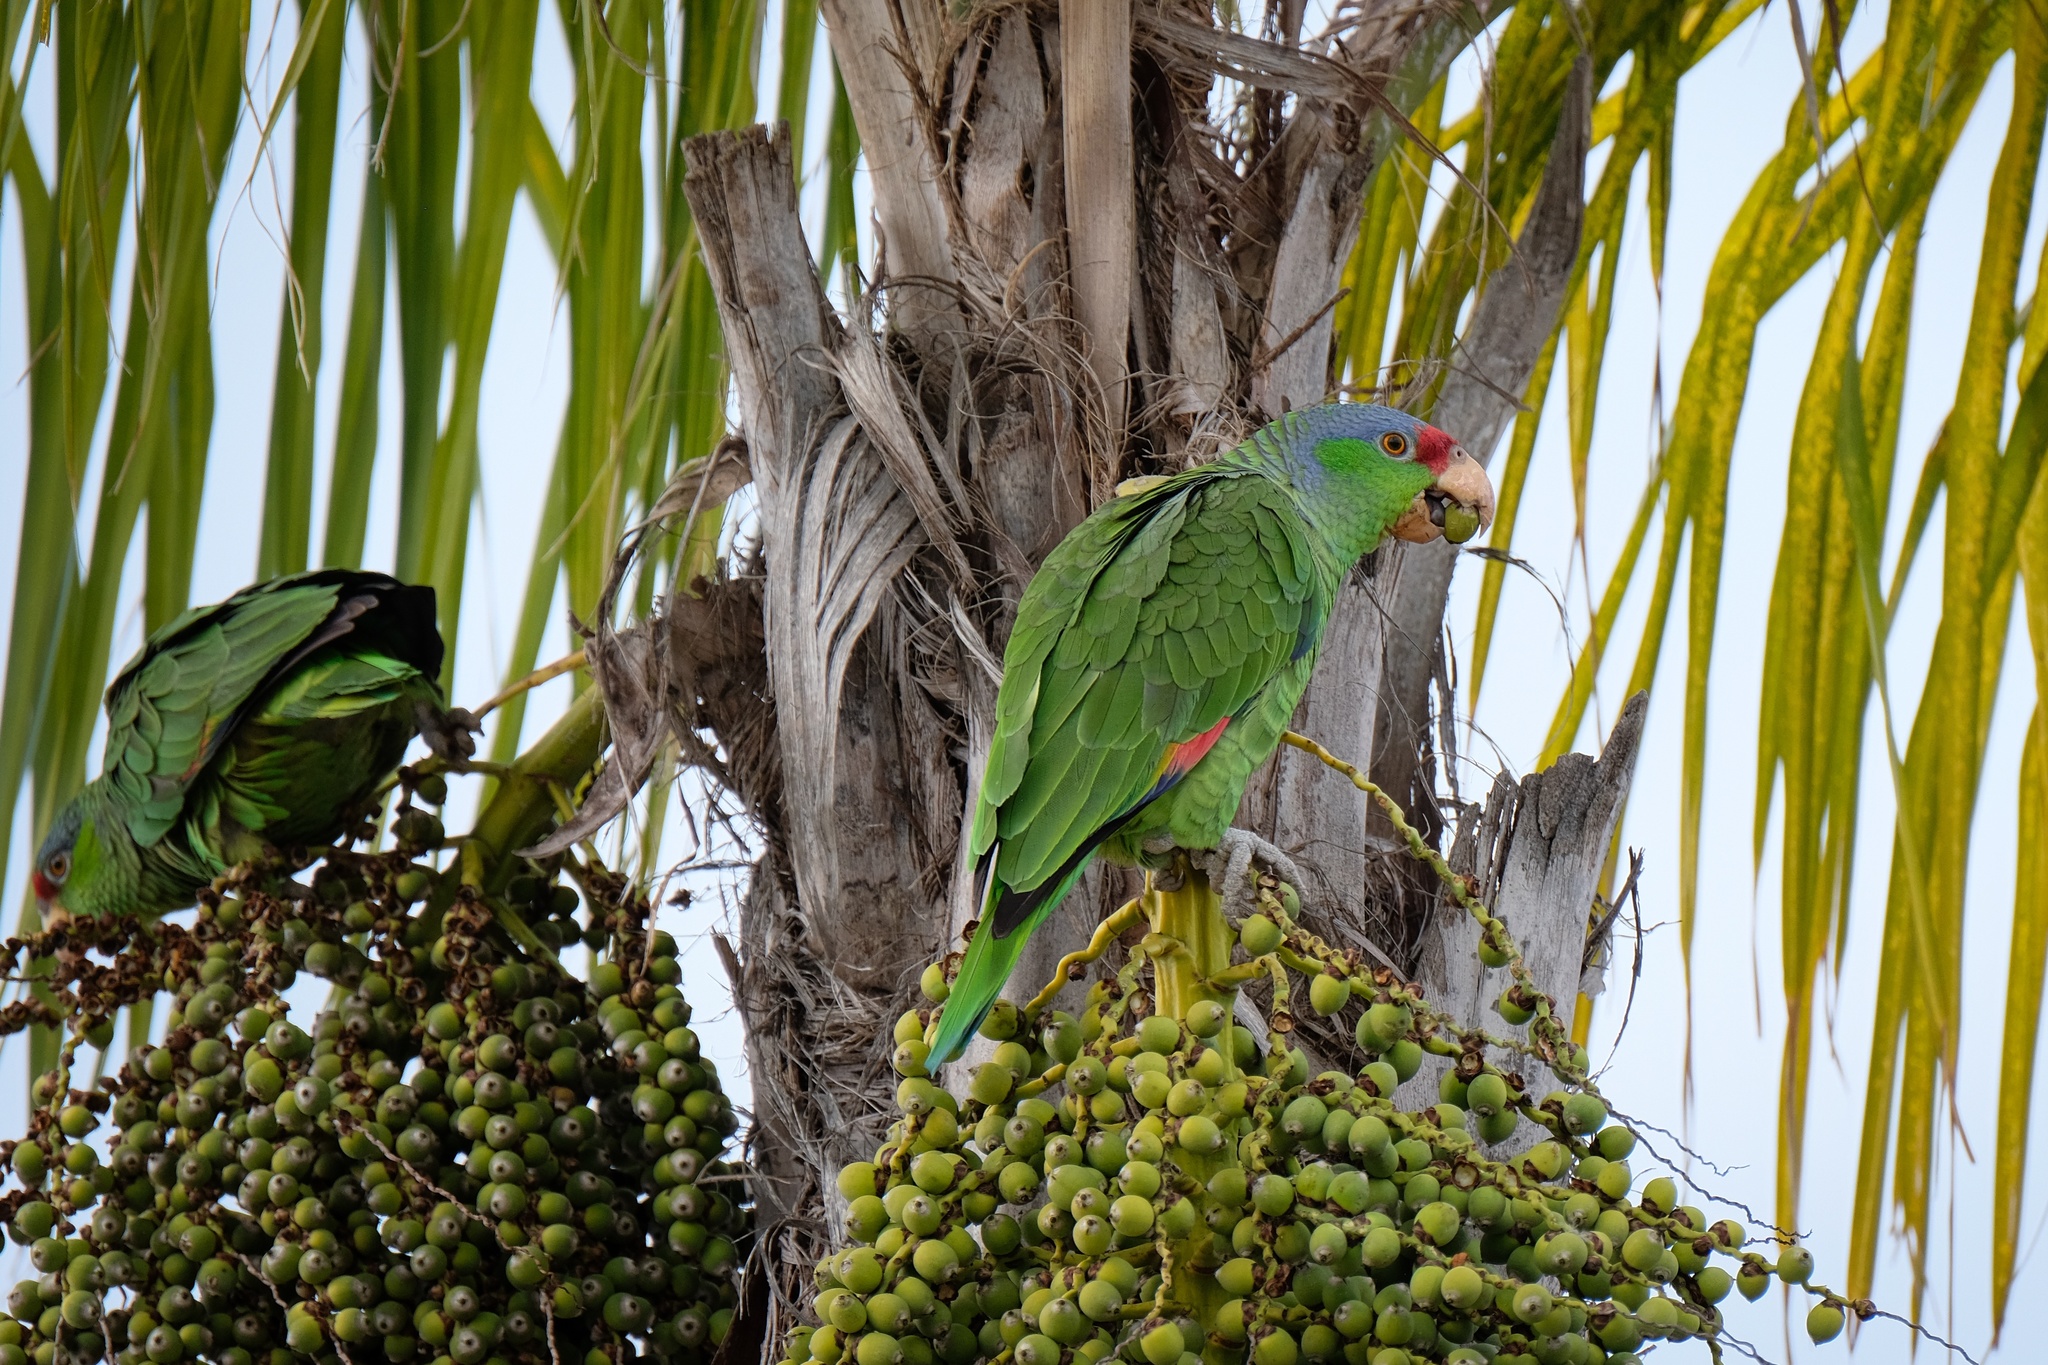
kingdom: Animalia
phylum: Chordata
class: Aves
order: Psittaciformes
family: Psittacidae
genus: Amazona
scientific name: Amazona
